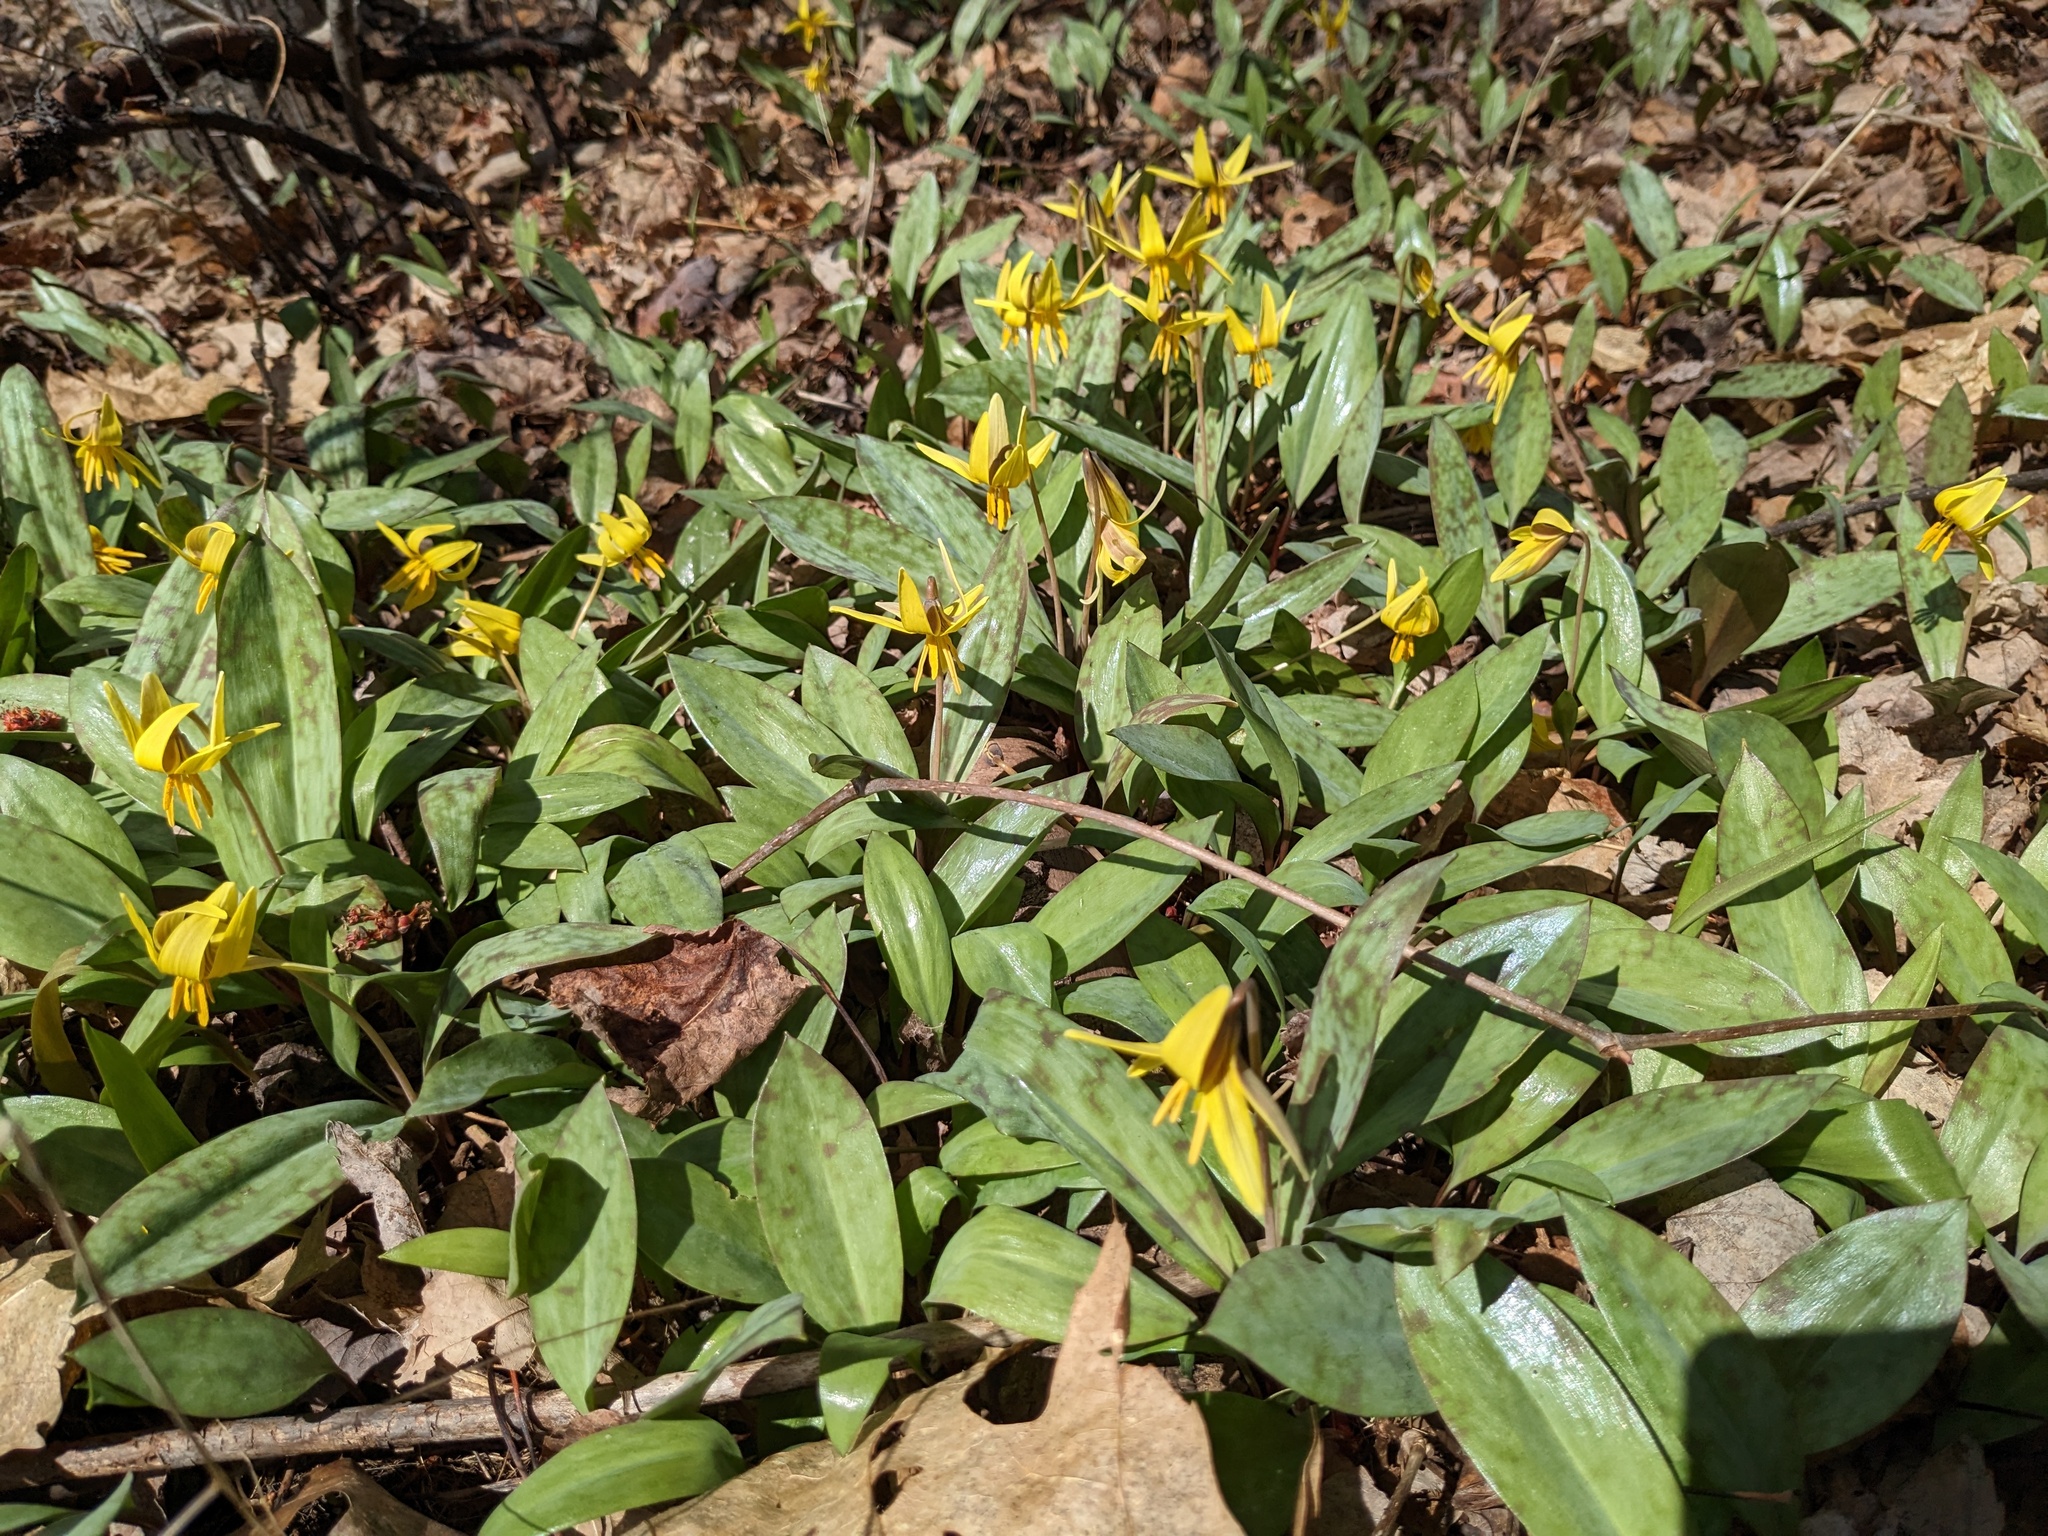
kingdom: Plantae
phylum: Tracheophyta
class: Liliopsida
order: Liliales
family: Liliaceae
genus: Erythronium
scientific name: Erythronium americanum
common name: Yellow adder's-tongue
